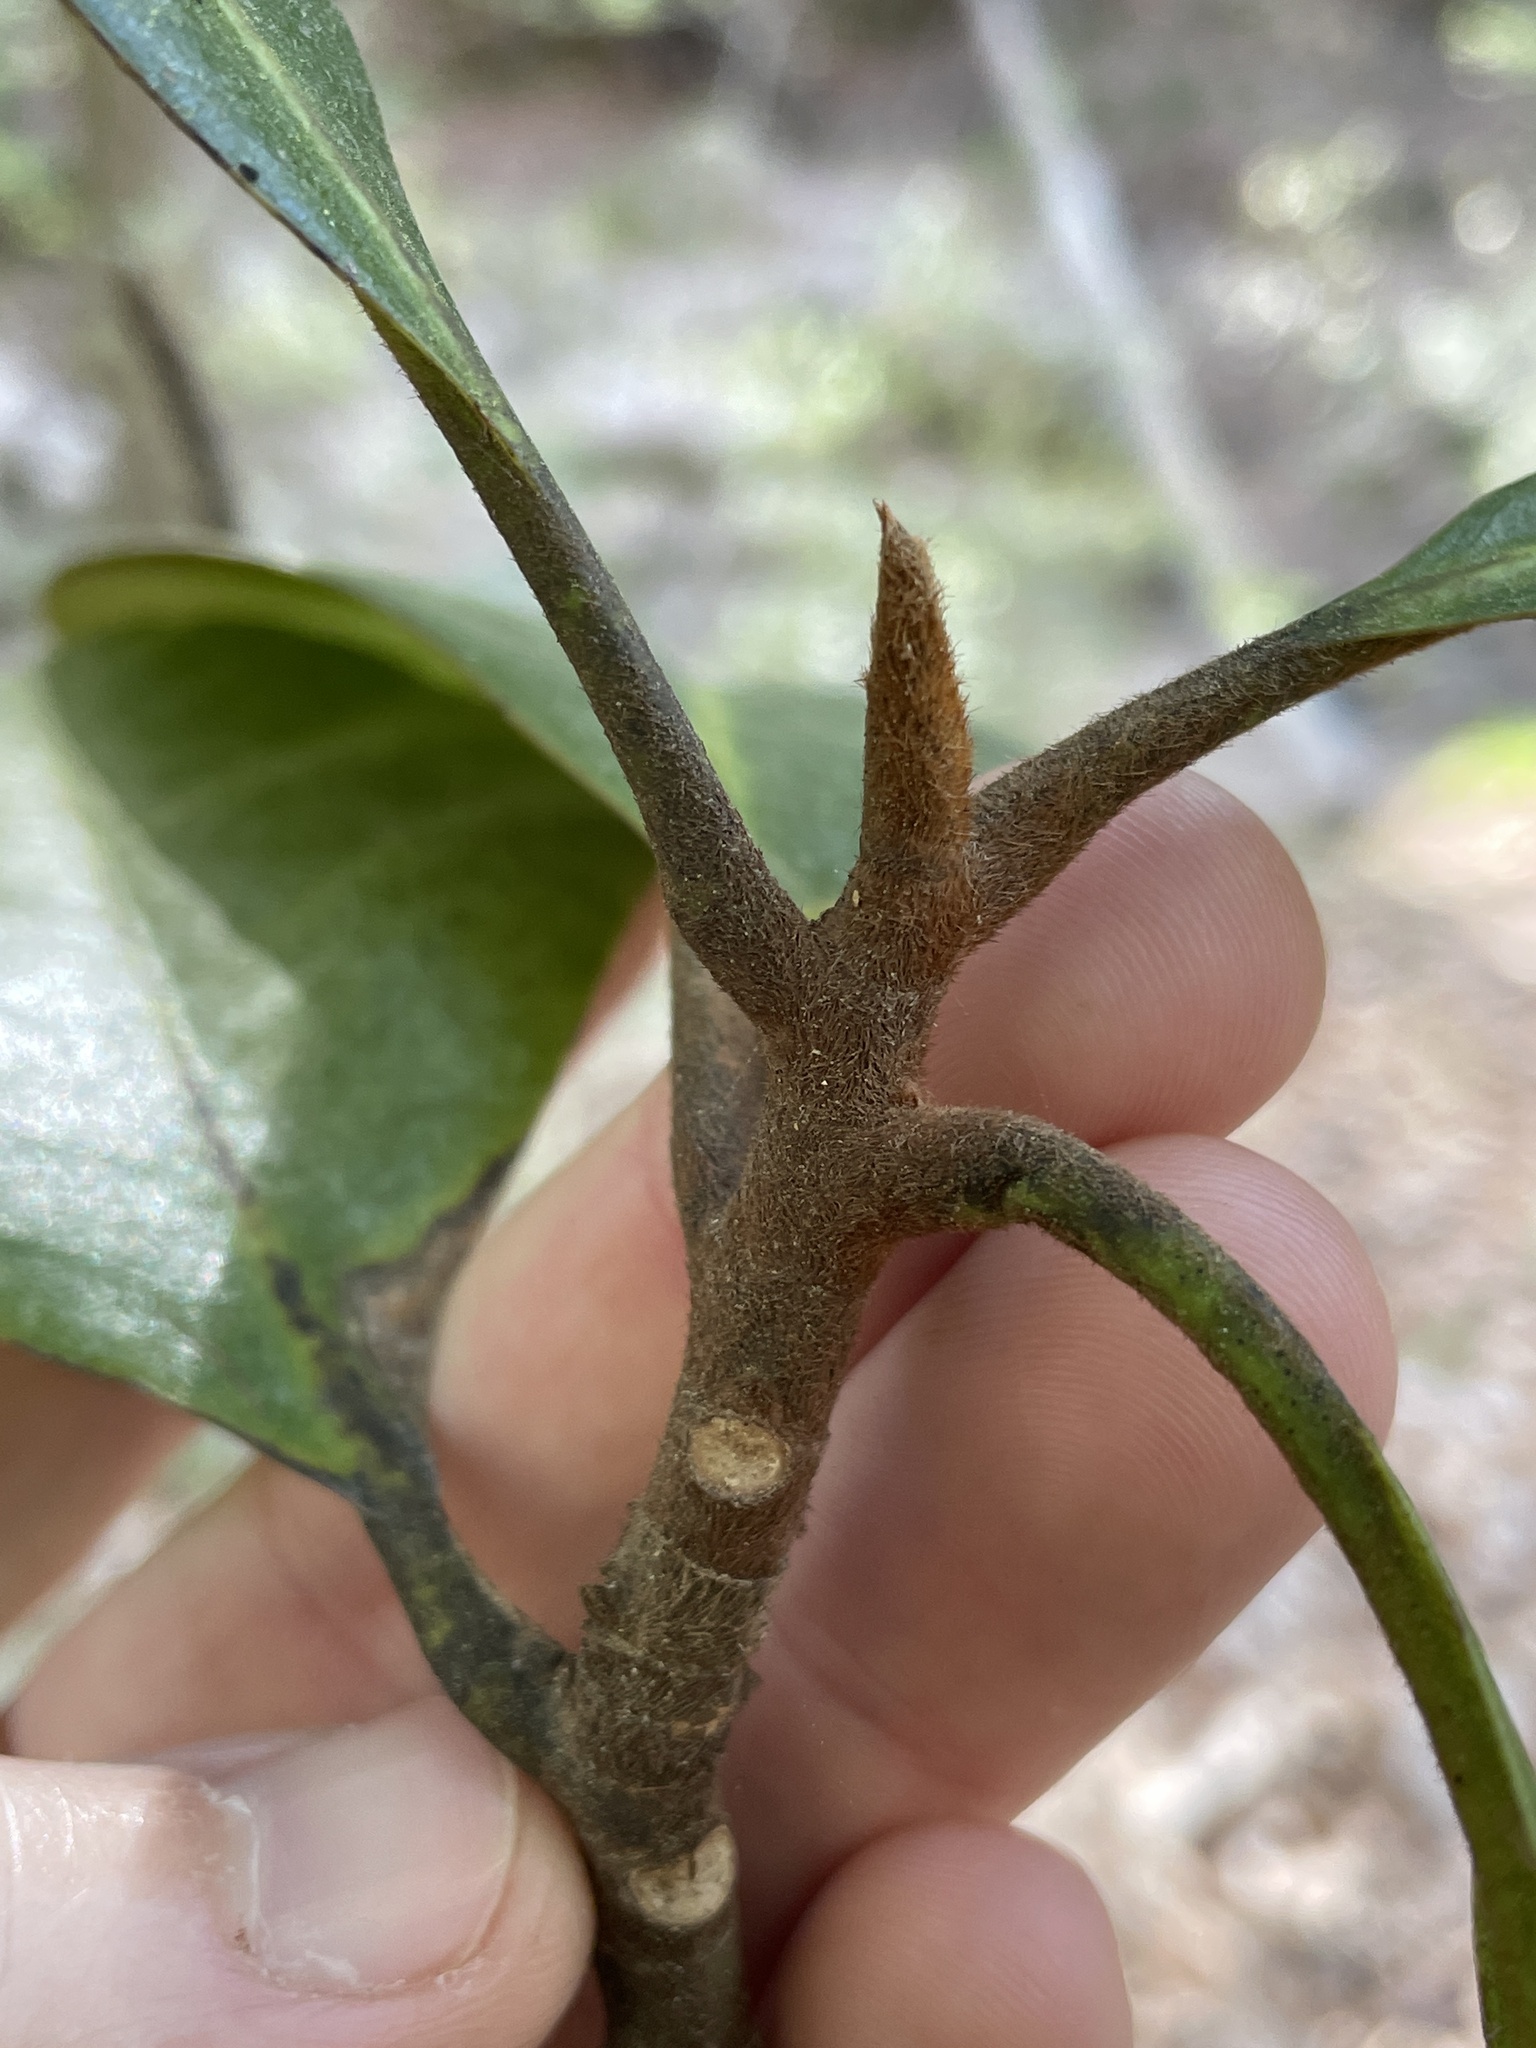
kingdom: Plantae
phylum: Tracheophyta
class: Magnoliopsida
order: Magnoliales
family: Magnoliaceae
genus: Magnolia
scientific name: Magnolia grandiflora
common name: Southern magnolia
